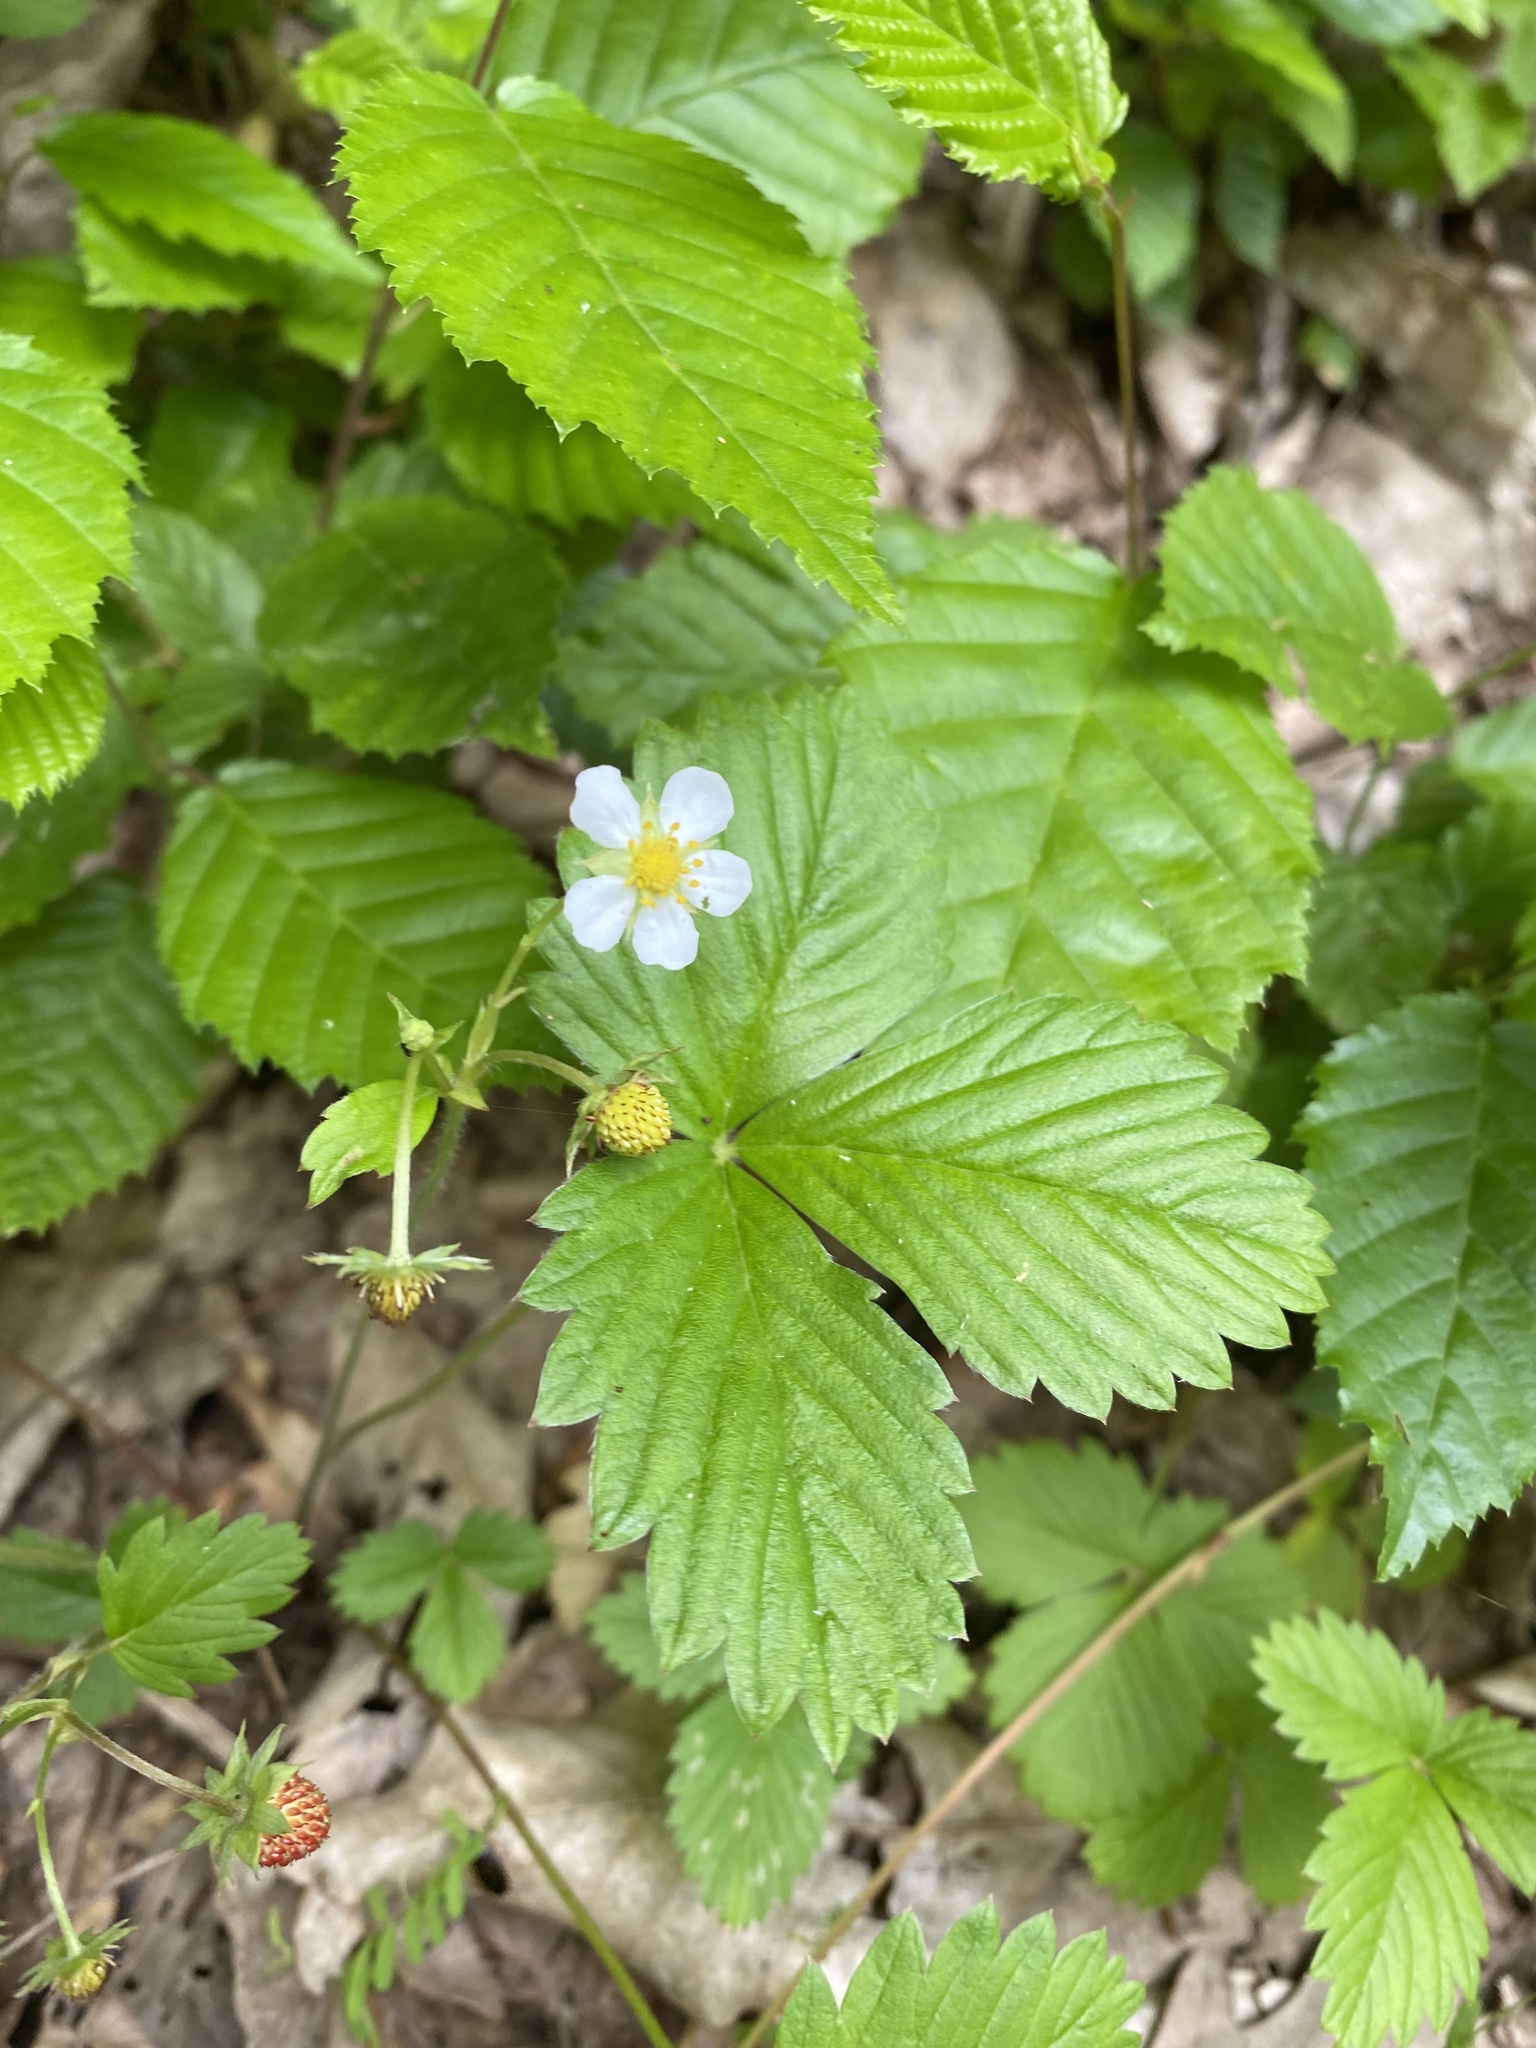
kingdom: Plantae
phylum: Tracheophyta
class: Magnoliopsida
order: Rosales
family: Rosaceae
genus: Fragaria
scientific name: Fragaria vesca
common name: Wild strawberry
